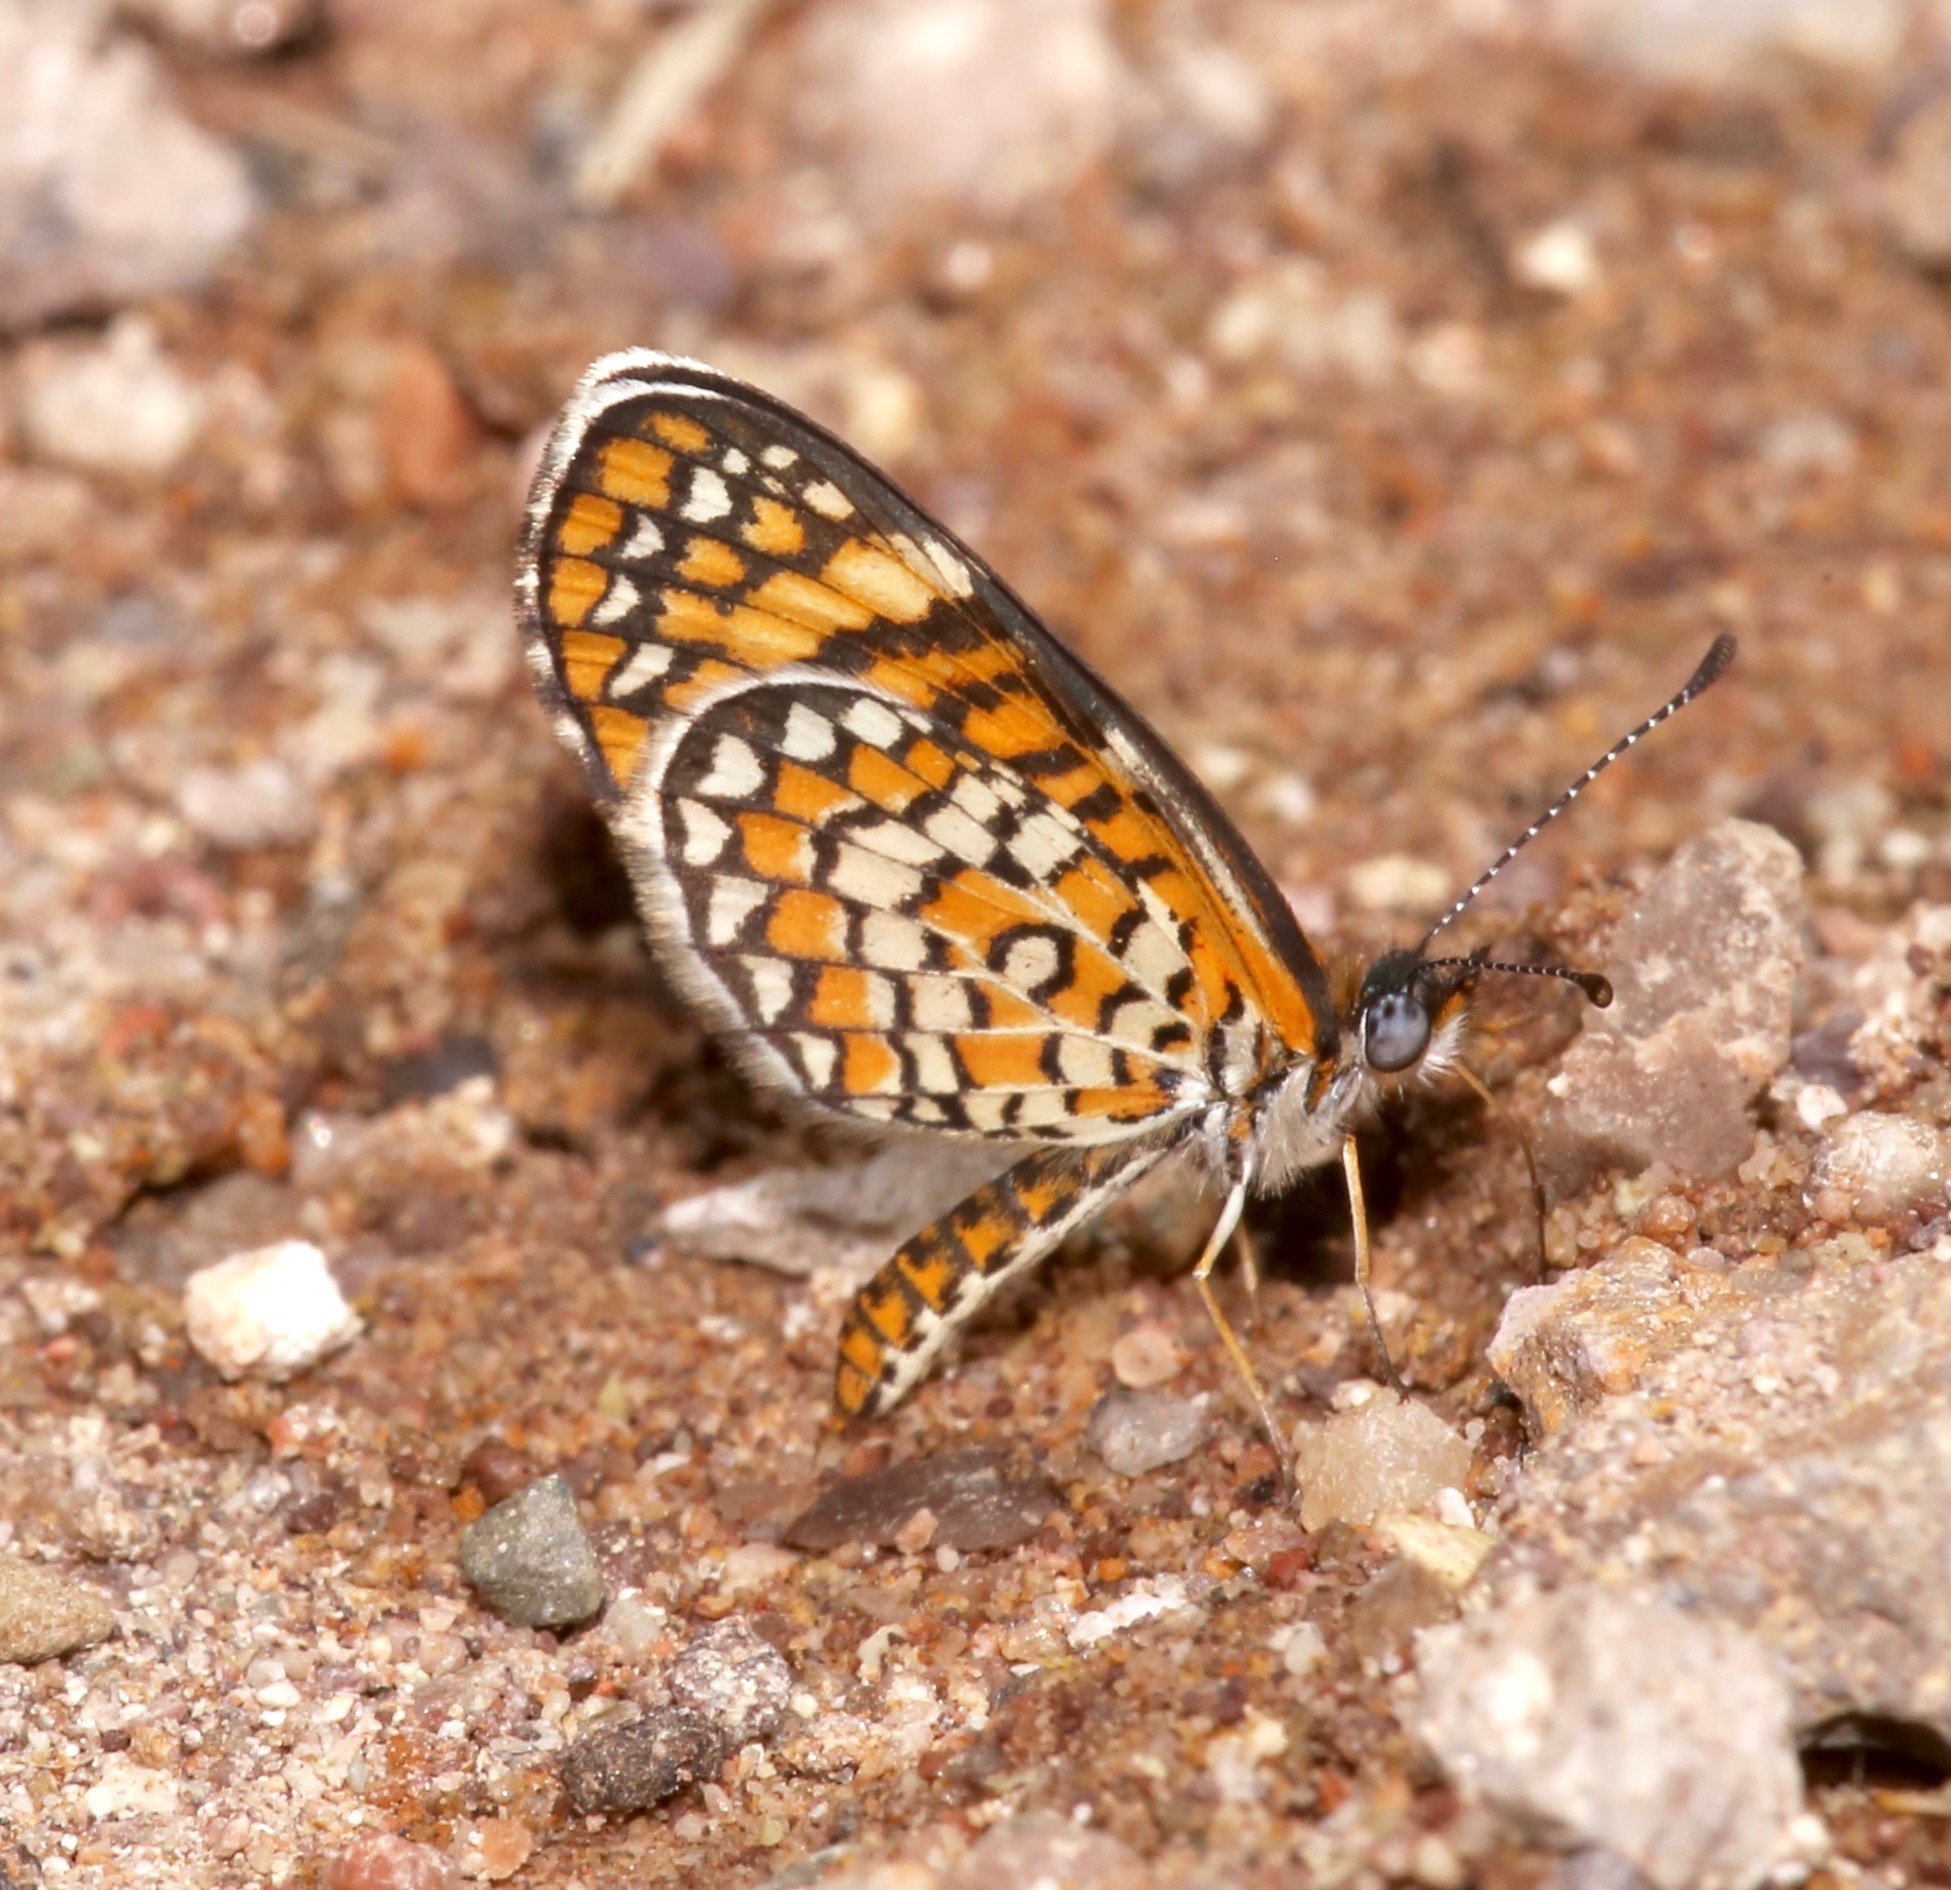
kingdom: Animalia
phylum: Arthropoda
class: Insecta
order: Lepidoptera
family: Nymphalidae
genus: Dymasia
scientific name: Dymasia dymas
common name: Tiny checkerspot
